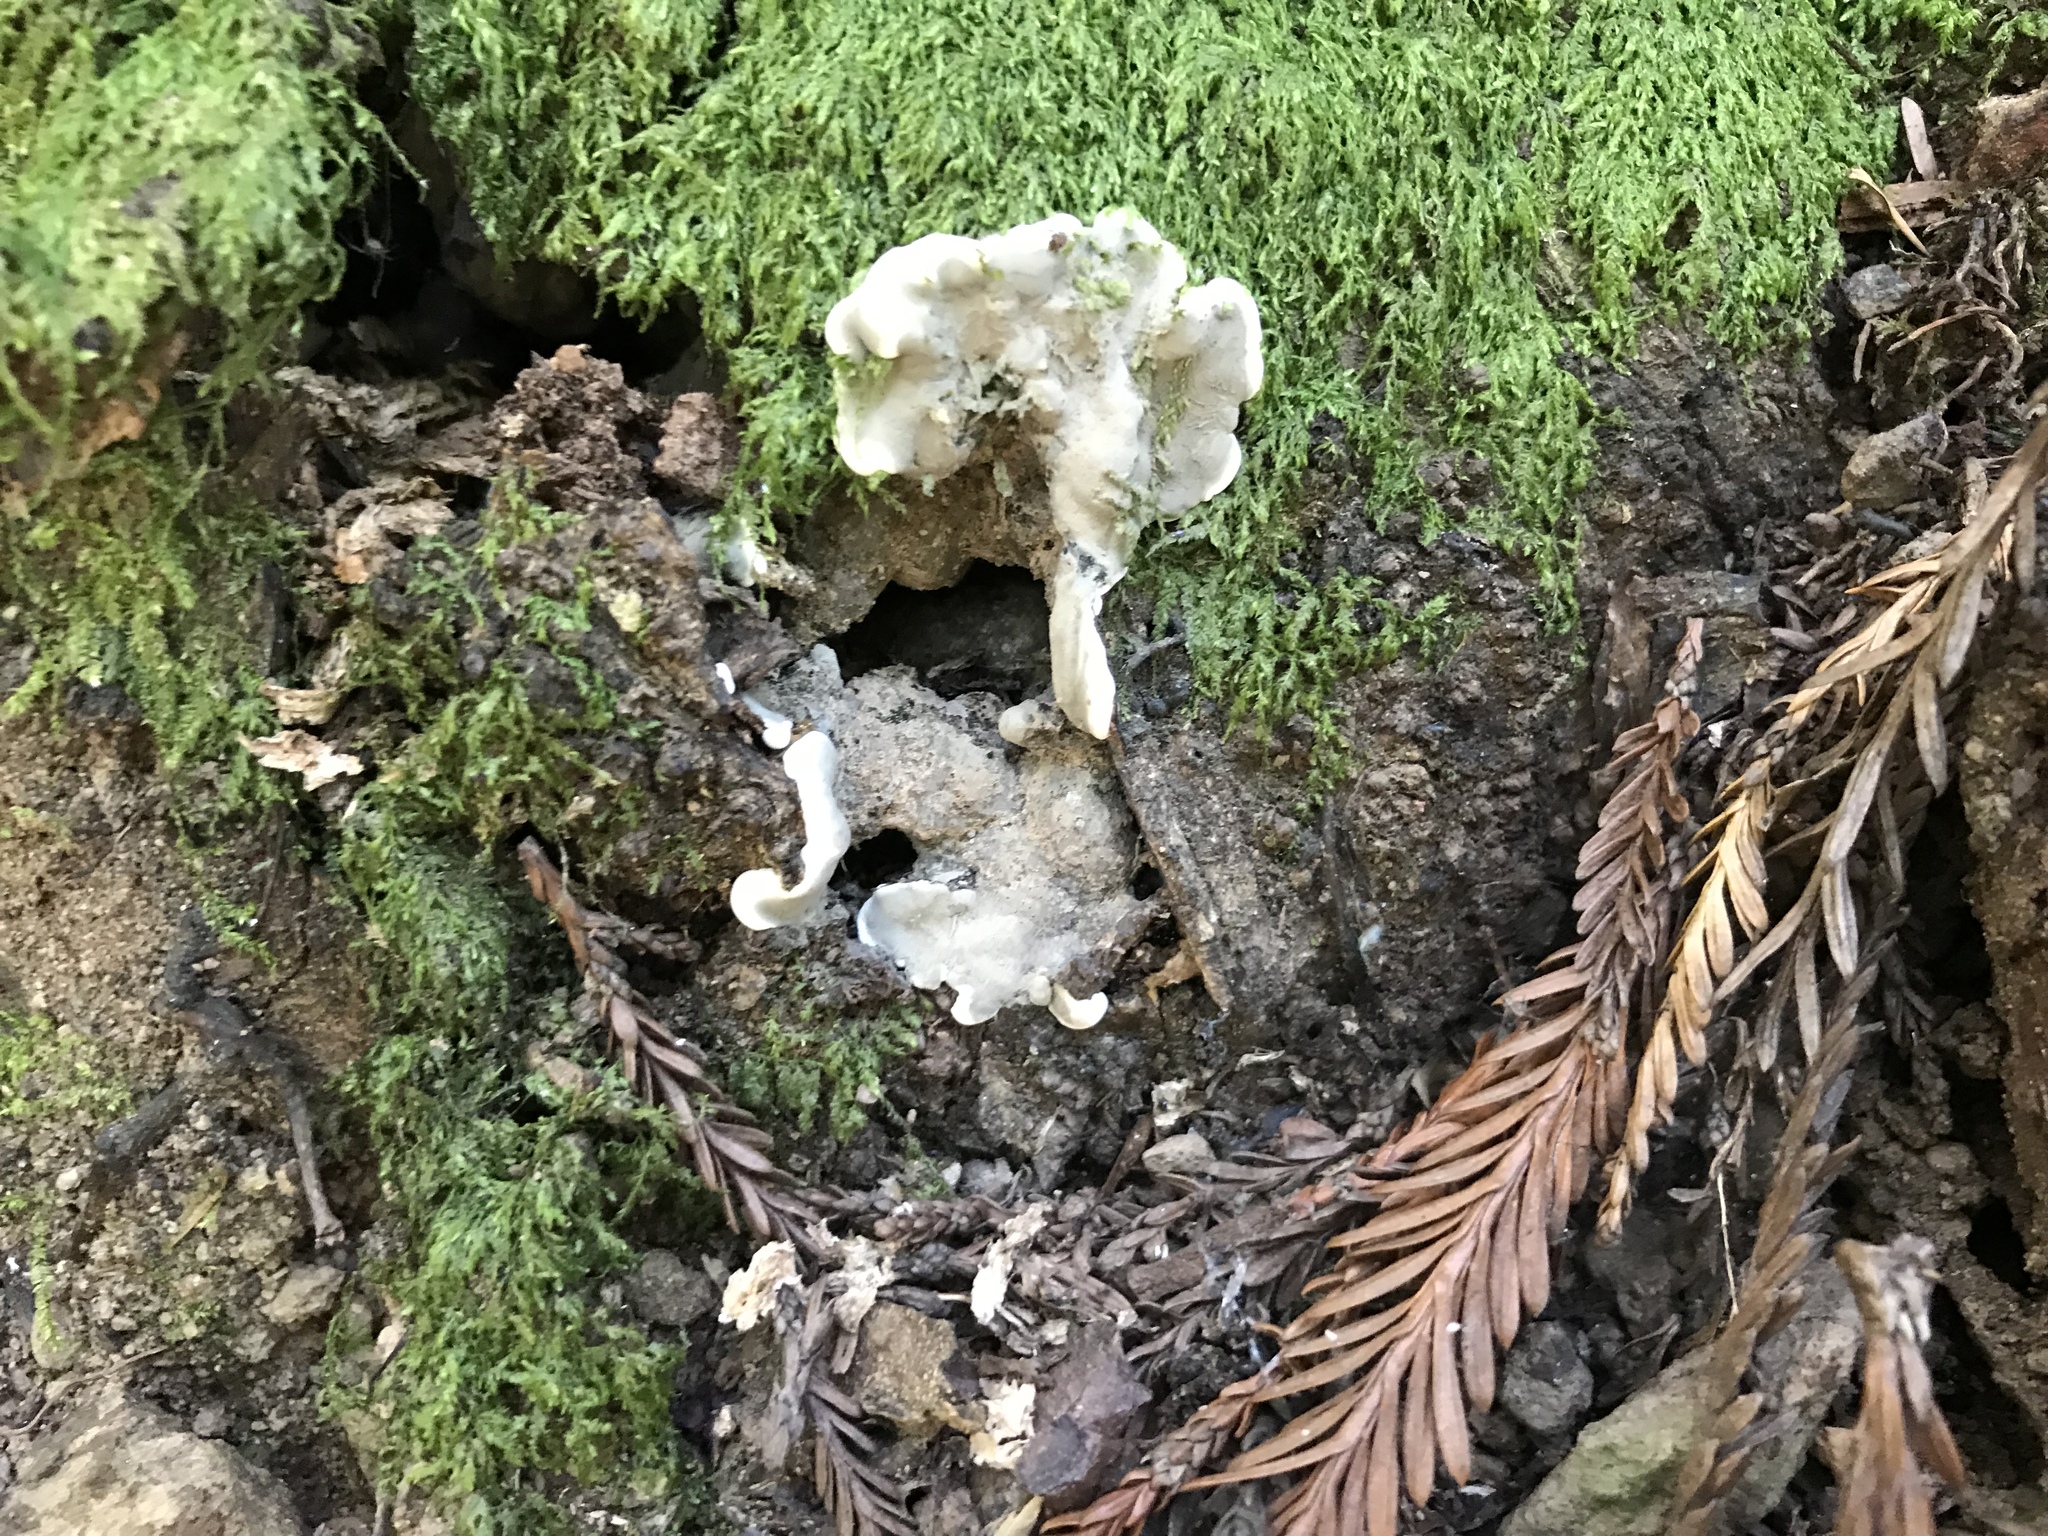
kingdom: Fungi
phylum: Ascomycota
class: Sordariomycetes
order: Xylariales
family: Xylariaceae
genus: Kretzschmaria
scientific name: Kretzschmaria deusta
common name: Brittle cinder
